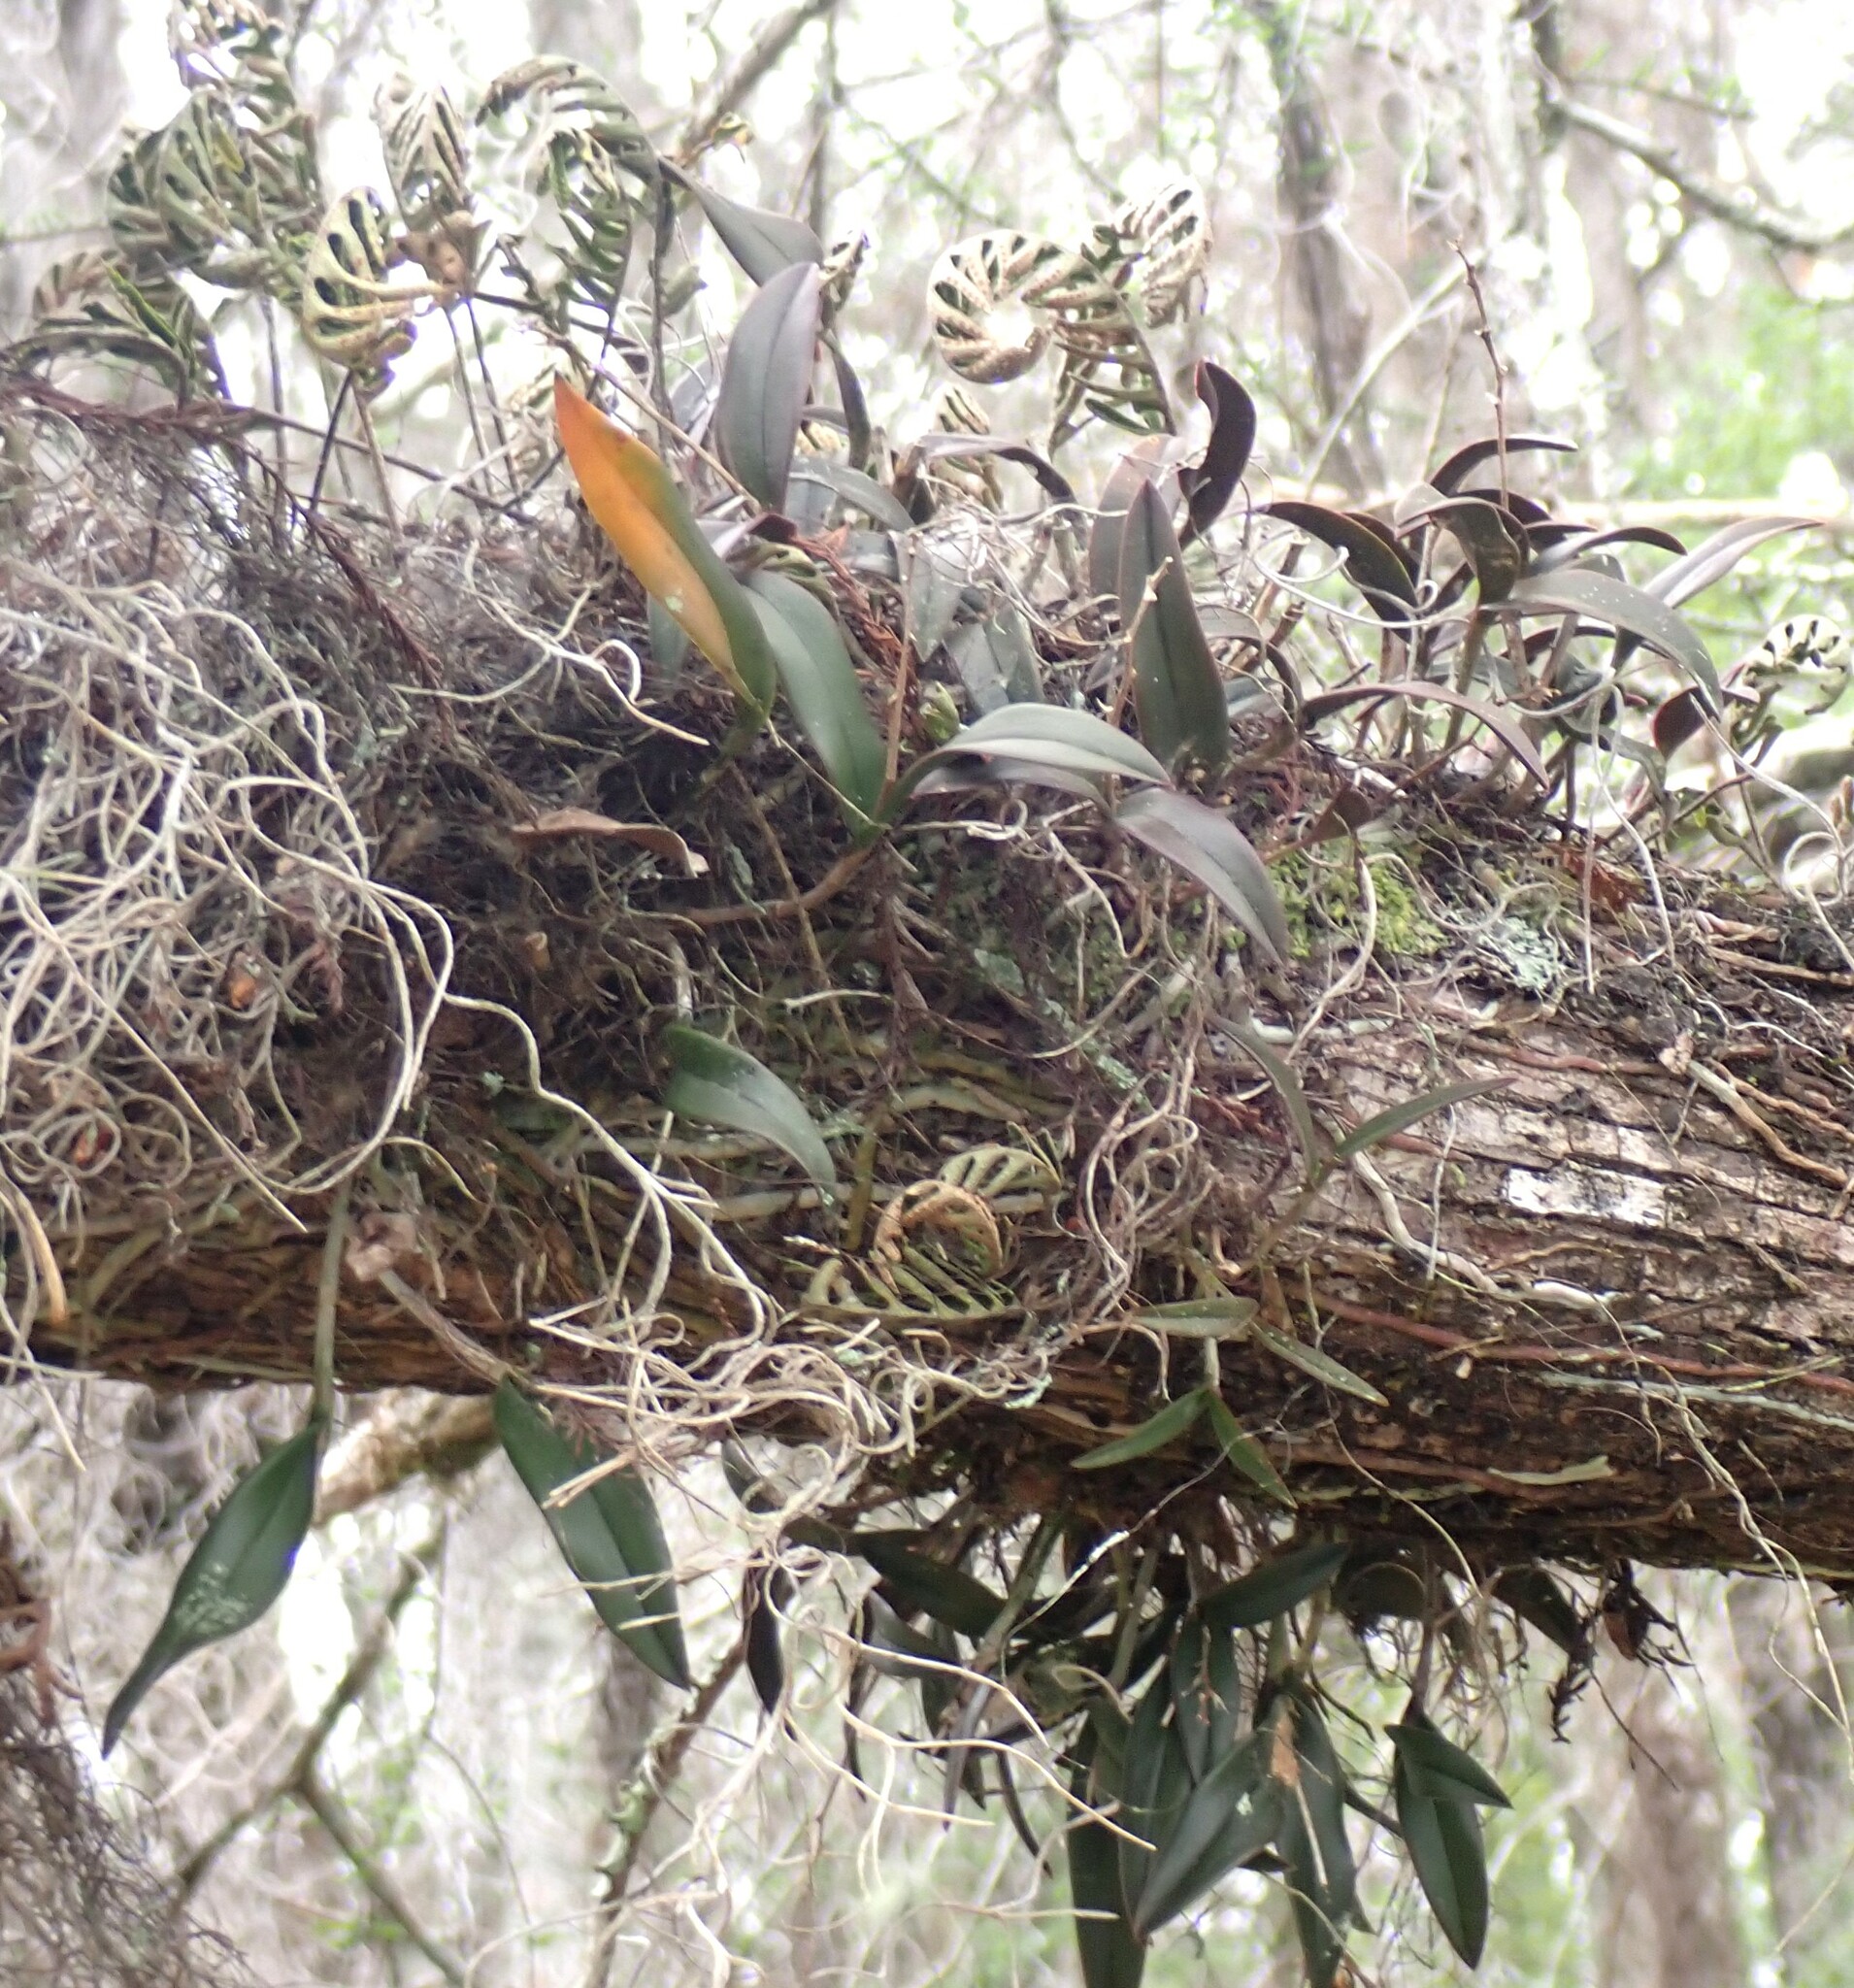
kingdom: Plantae
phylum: Tracheophyta
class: Liliopsida
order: Asparagales
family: Orchidaceae
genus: Epidendrum
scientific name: Epidendrum conopseum
